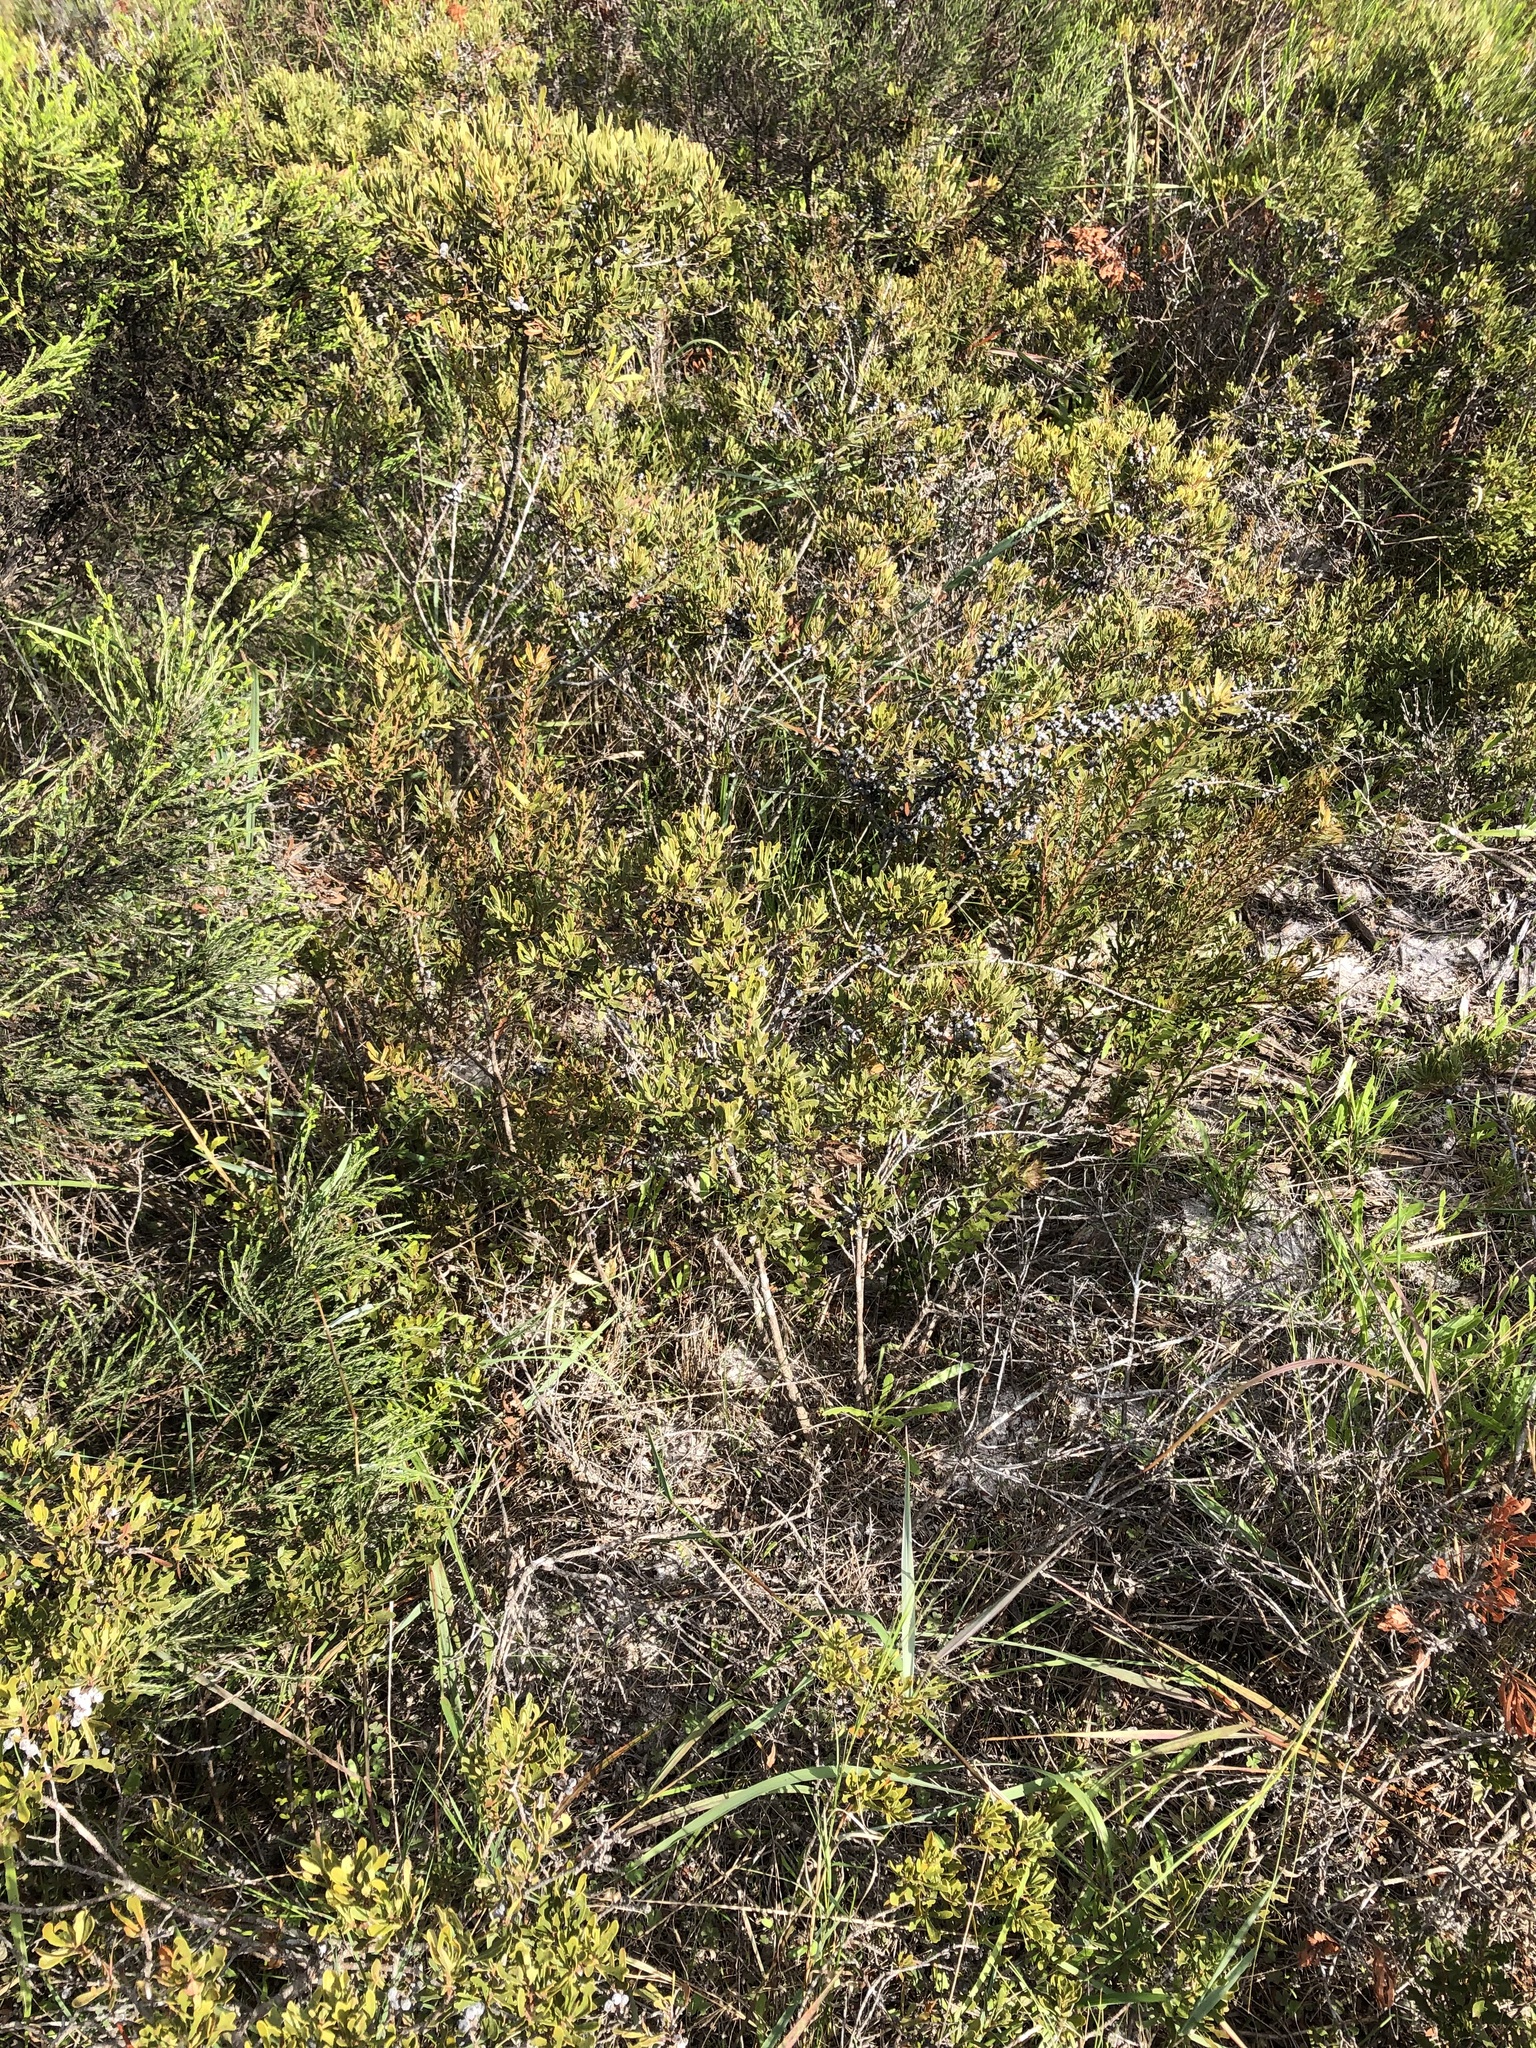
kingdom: Plantae
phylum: Tracheophyta
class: Magnoliopsida
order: Fagales
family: Myricaceae
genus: Morella
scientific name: Morella quercifolia
